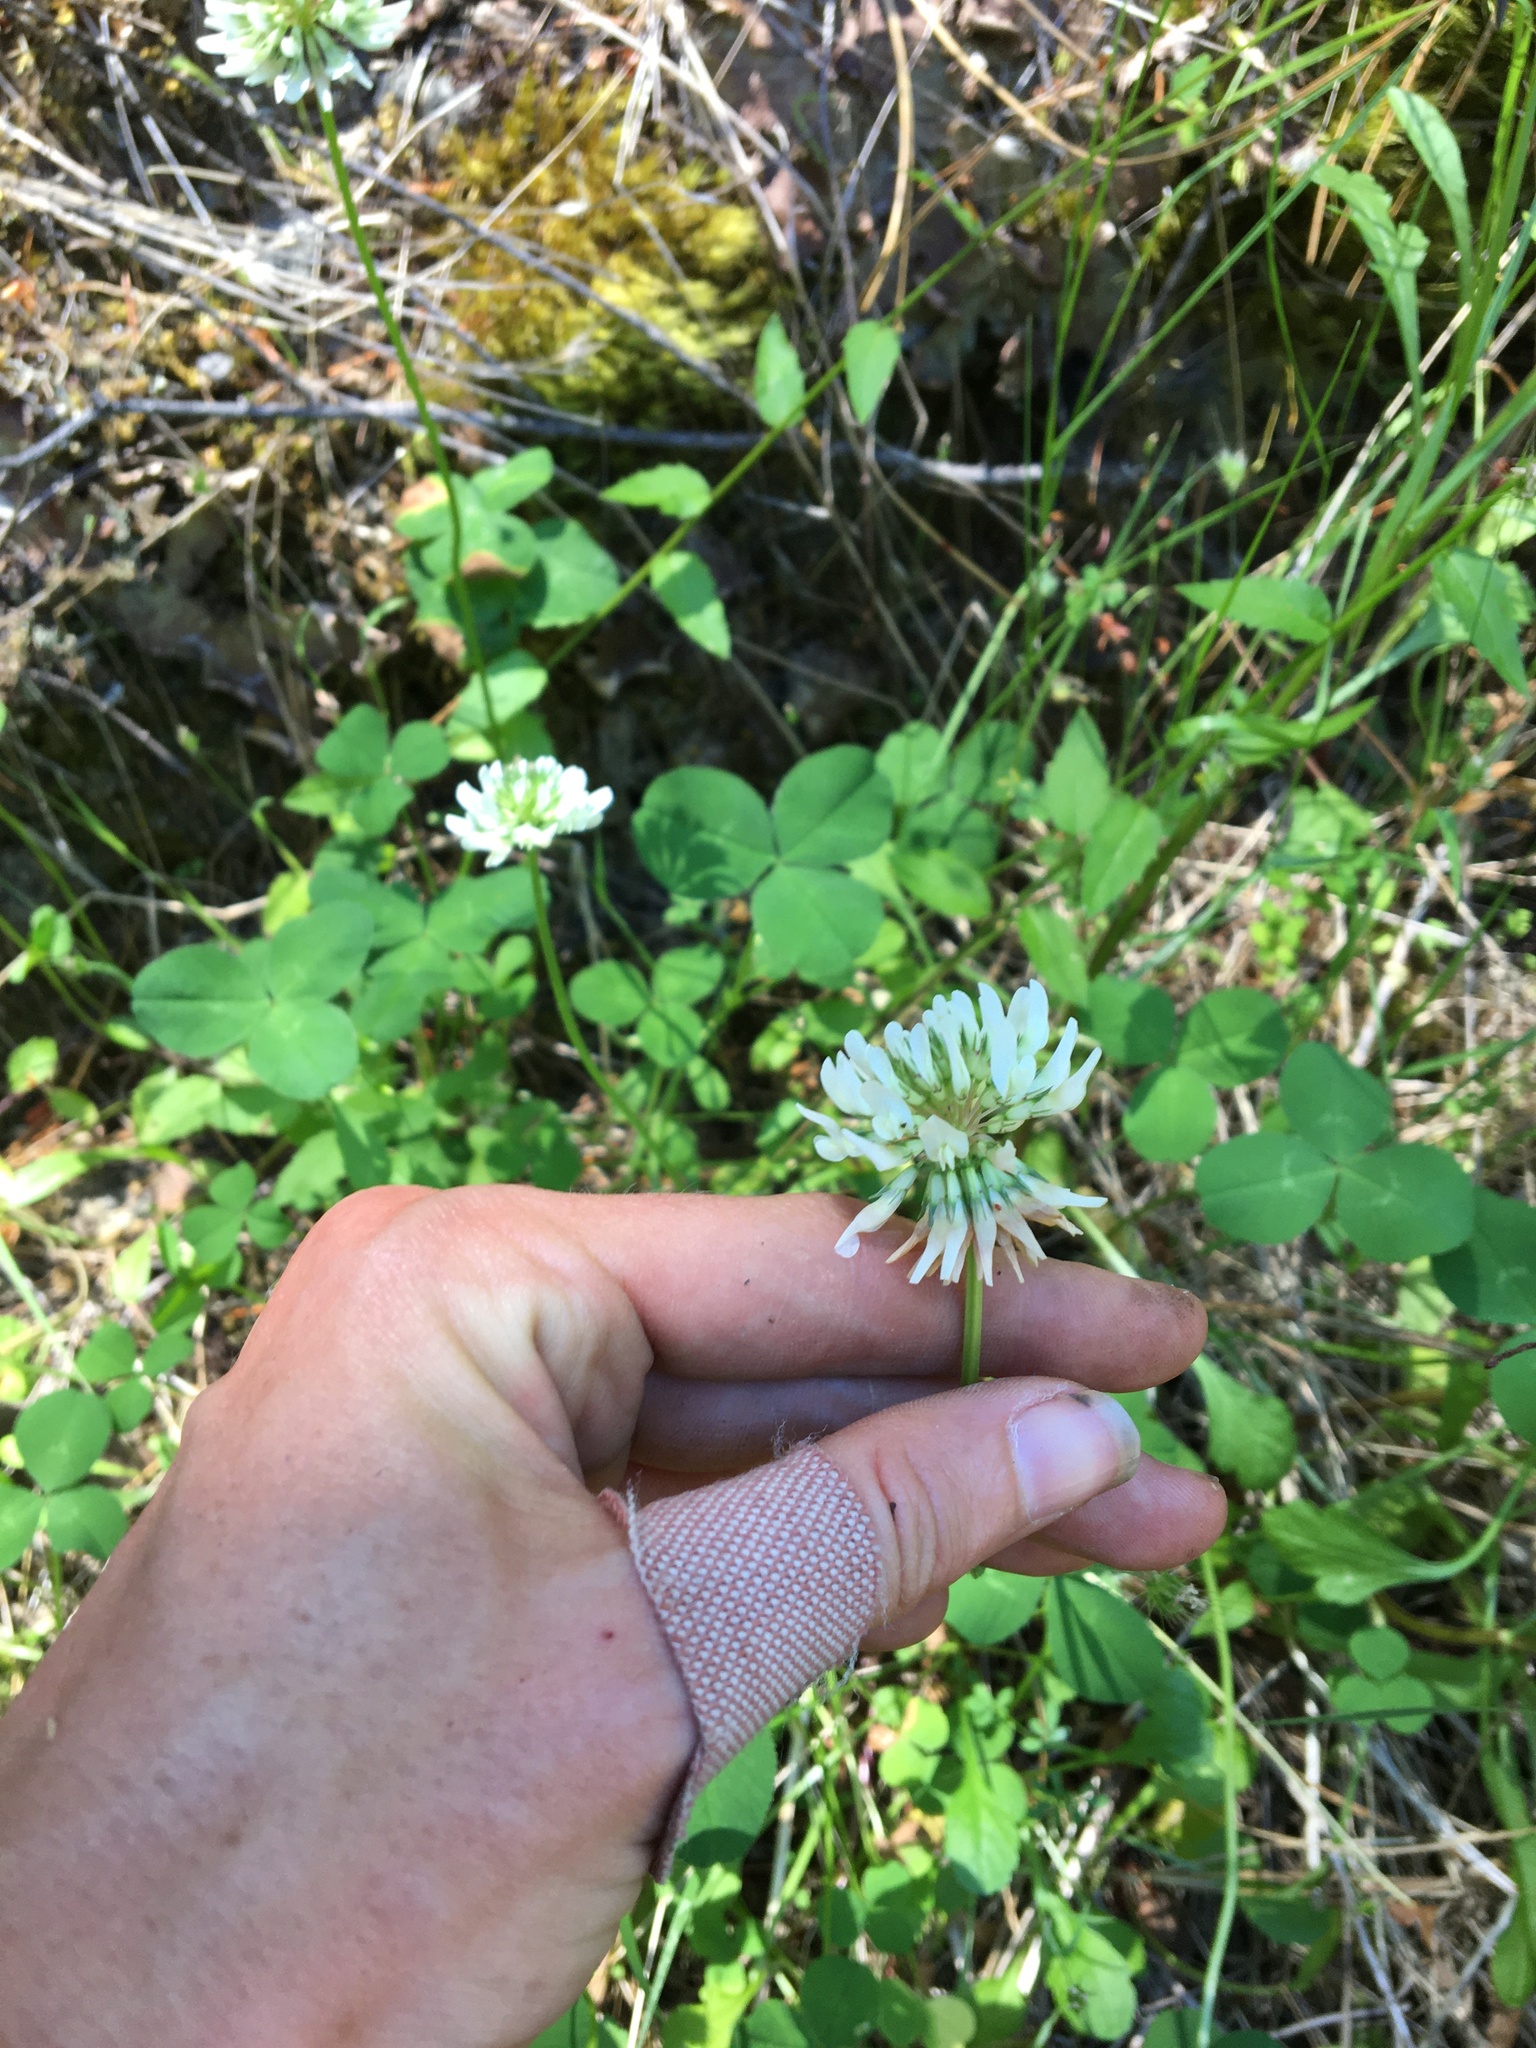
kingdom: Plantae
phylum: Tracheophyta
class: Magnoliopsida
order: Fabales
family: Fabaceae
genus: Trifolium
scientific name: Trifolium repens
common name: White clover
